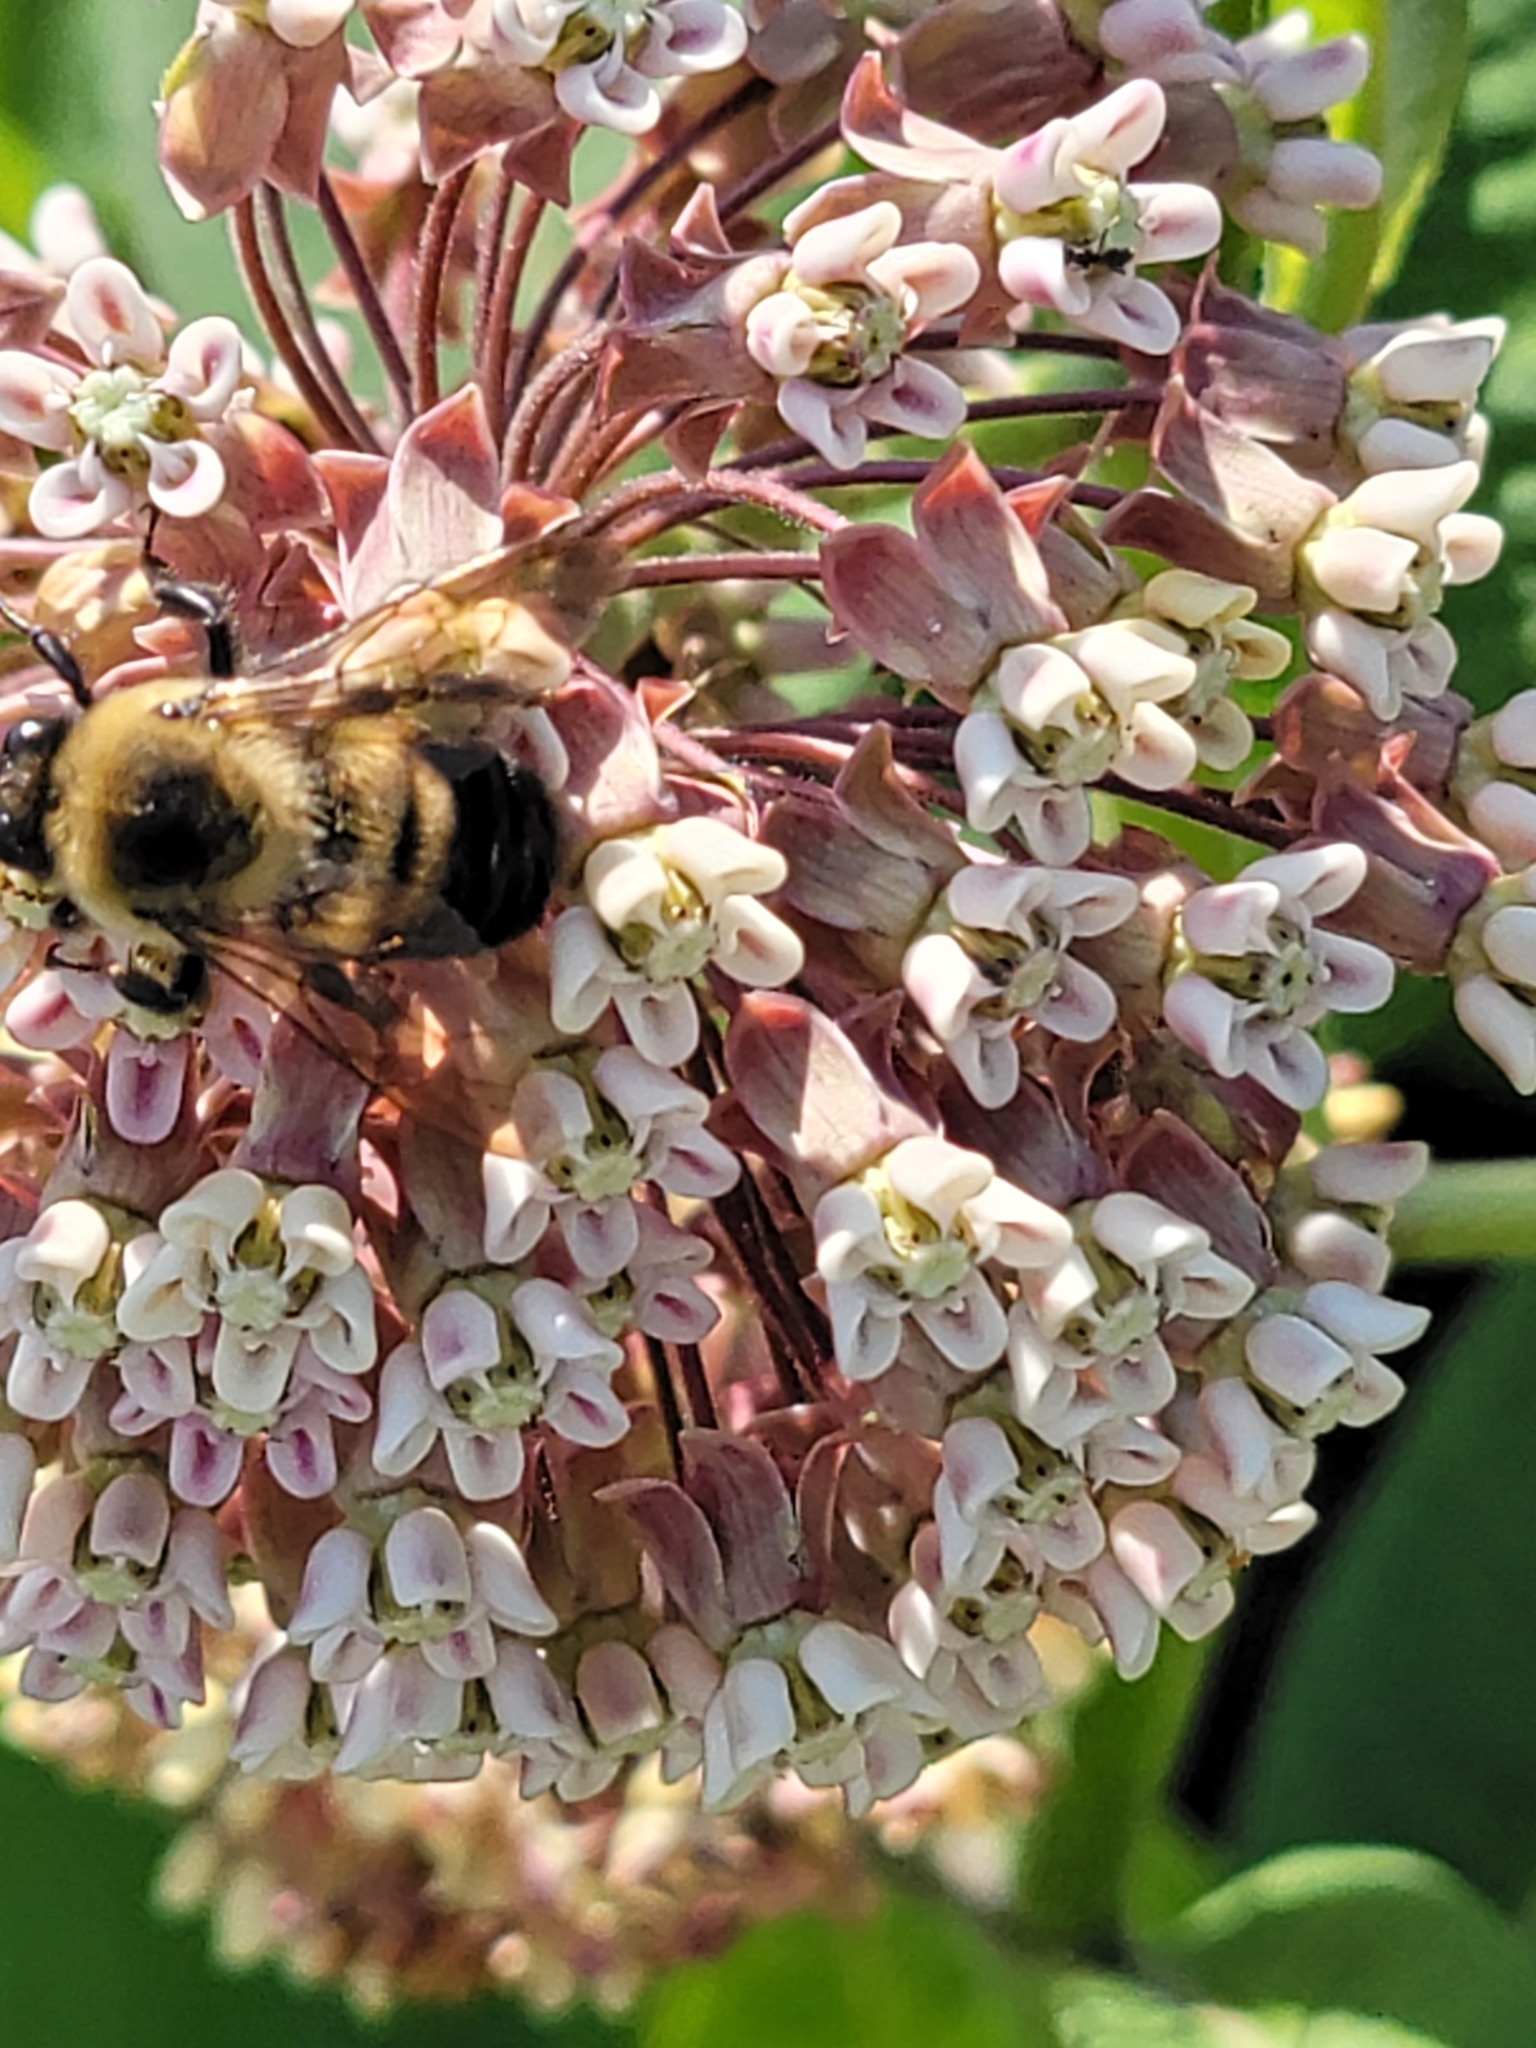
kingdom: Animalia
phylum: Arthropoda
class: Insecta
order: Hymenoptera
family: Apidae
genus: Bombus
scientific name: Bombus griseocollis
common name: Brown-belted bumble bee
